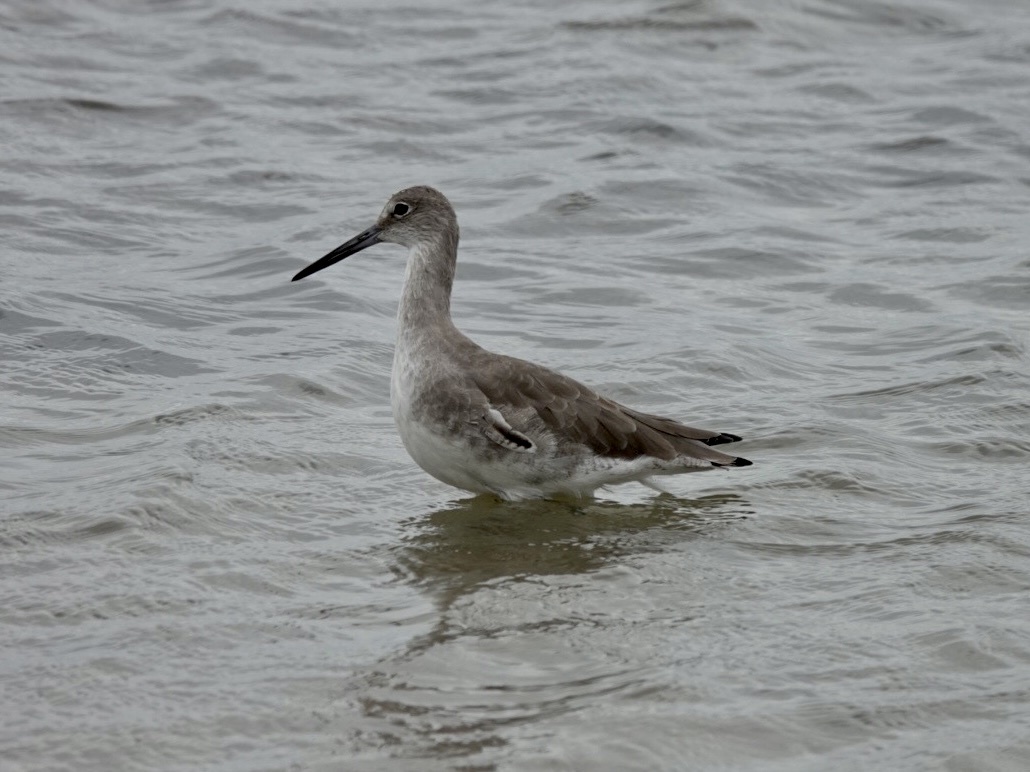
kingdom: Animalia
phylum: Chordata
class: Aves
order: Charadriiformes
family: Scolopacidae
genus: Tringa
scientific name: Tringa semipalmata
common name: Willet
